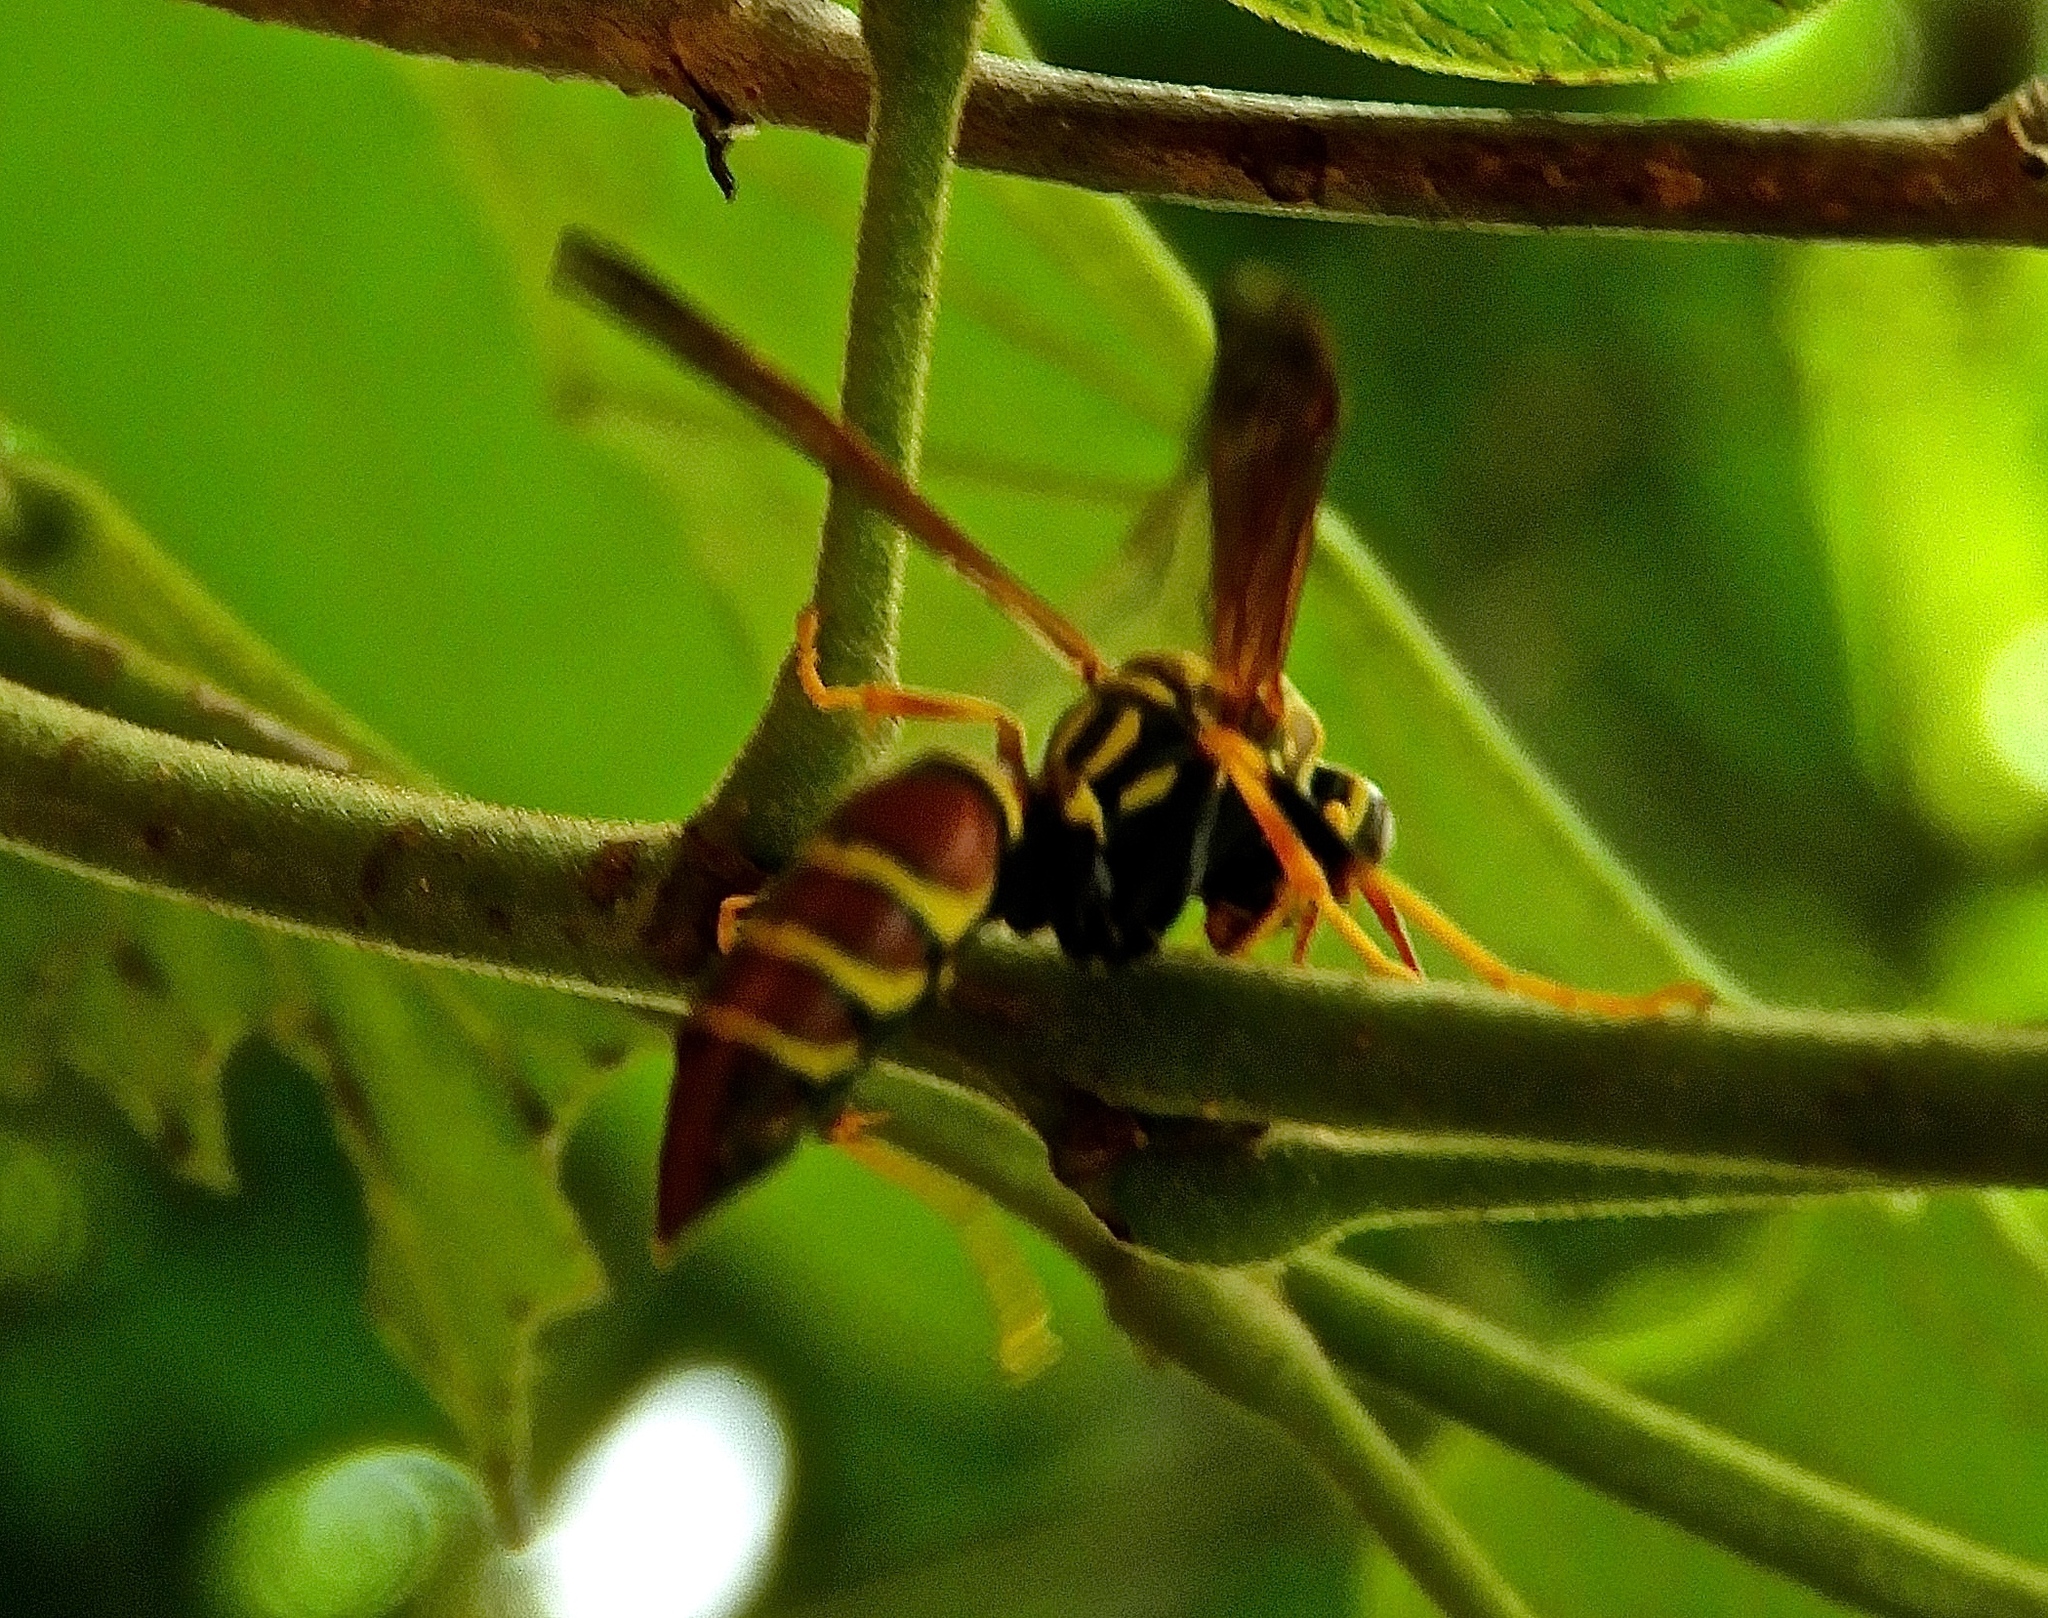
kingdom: Animalia
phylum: Arthropoda
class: Insecta
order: Hymenoptera
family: Eumenidae
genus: Polistes
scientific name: Polistes instabilis
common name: Unstable paper wasp
